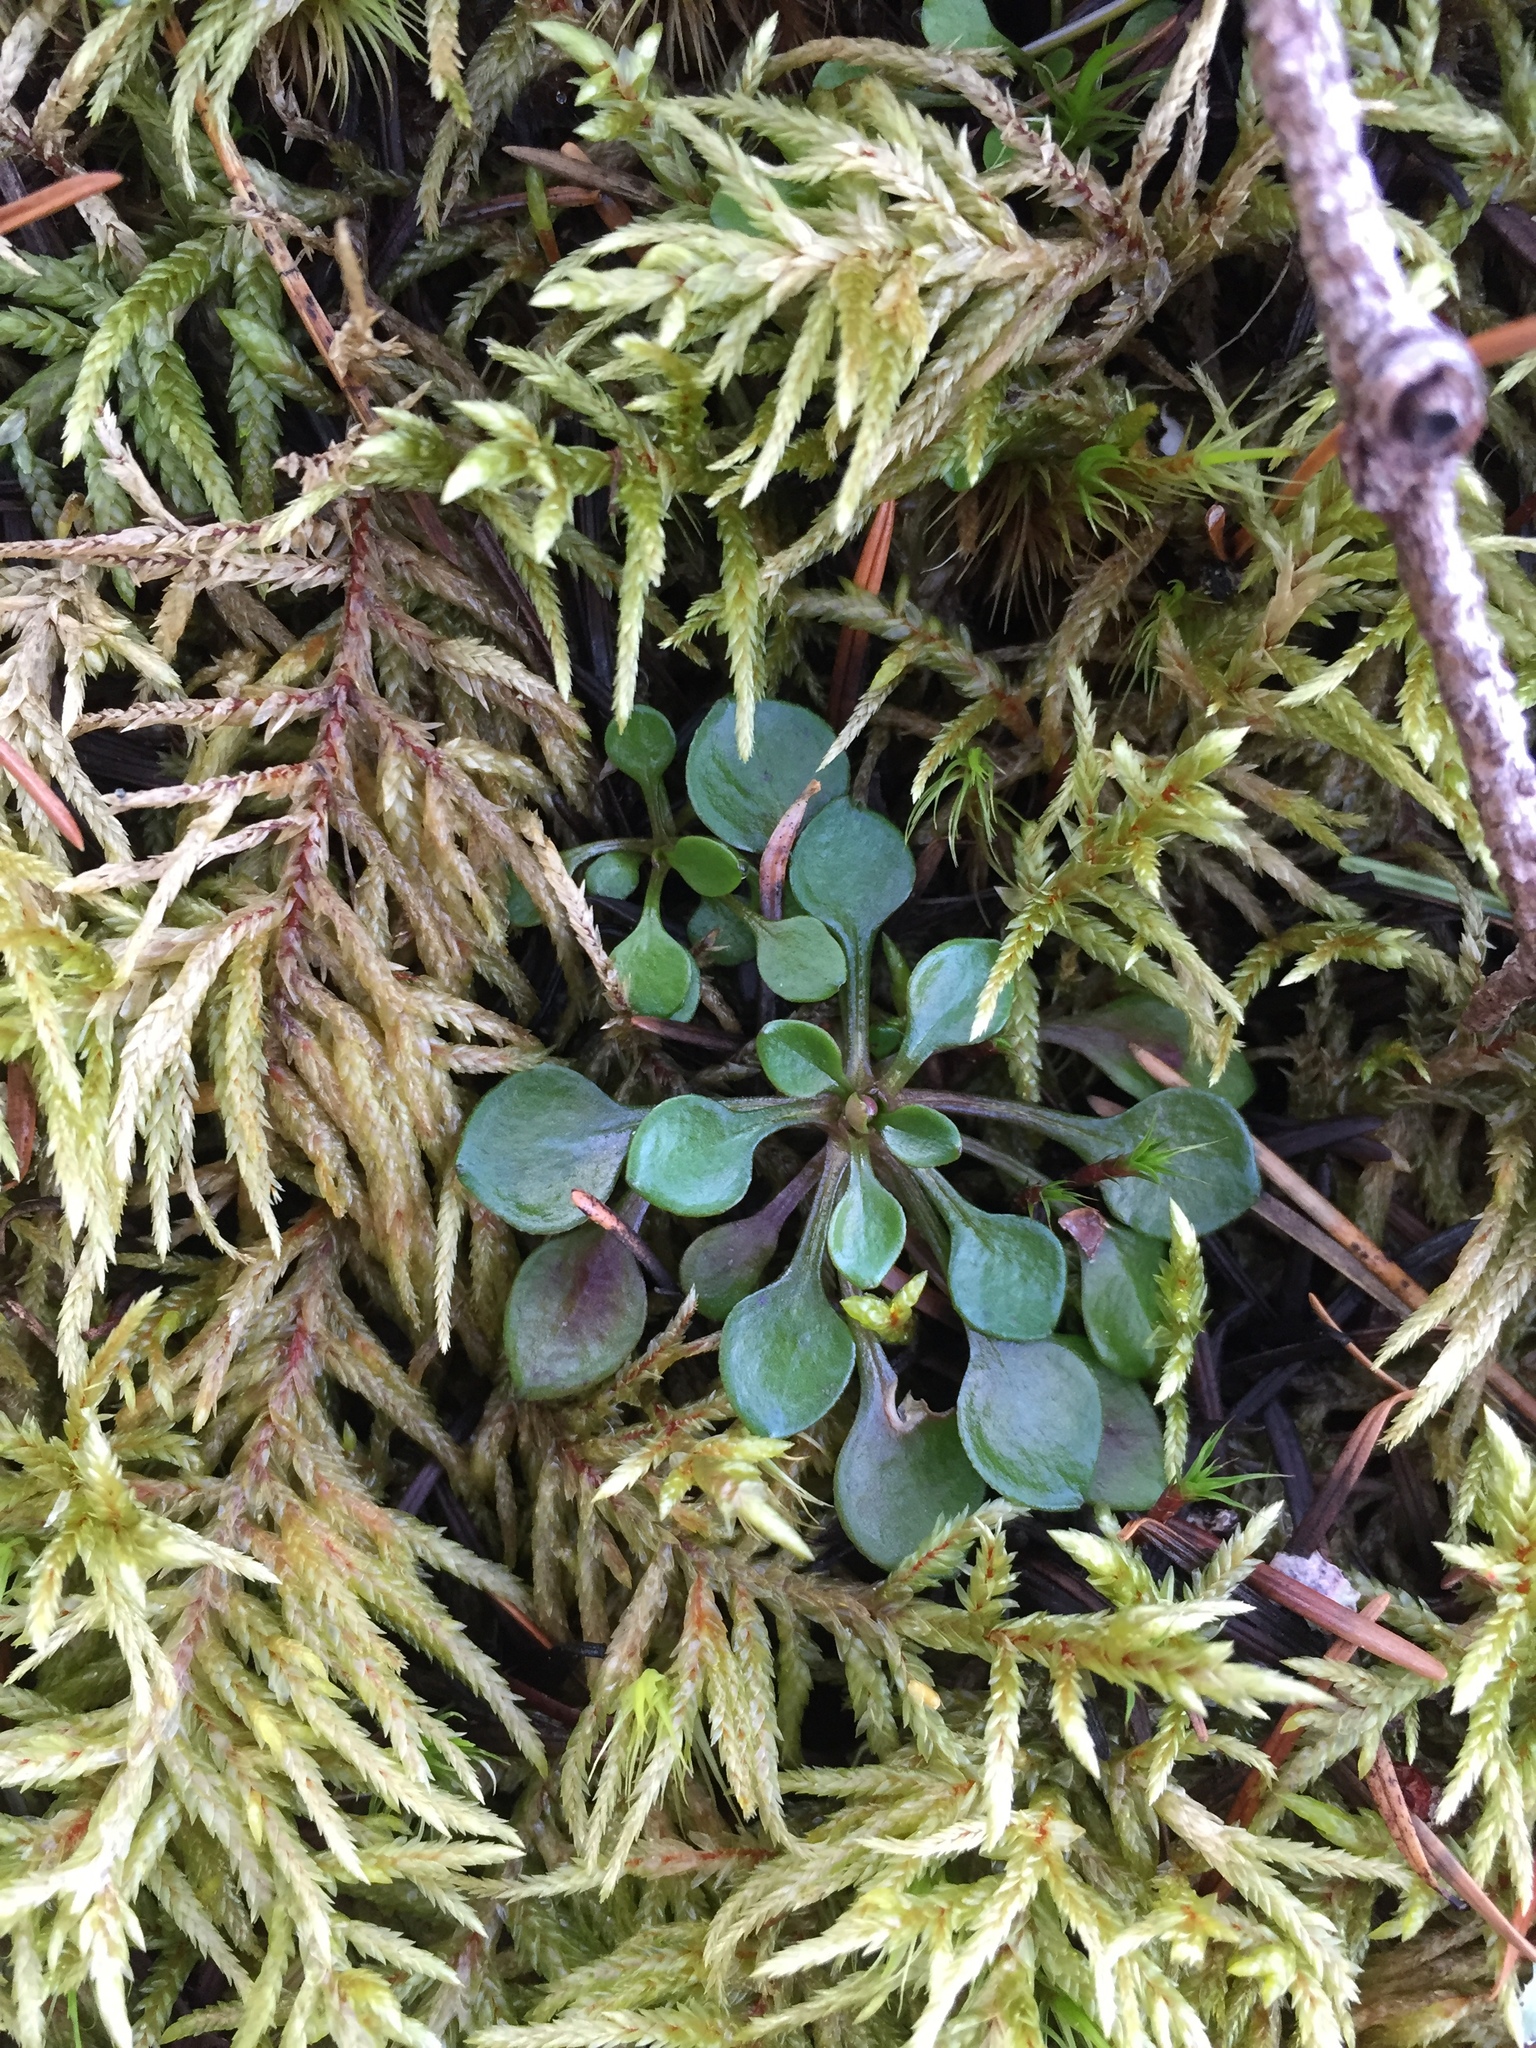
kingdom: Plantae
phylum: Tracheophyta
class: Magnoliopsida
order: Caryophyllales
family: Montiaceae
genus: Claytonia
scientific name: Claytonia sibirica
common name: Pink purslane
